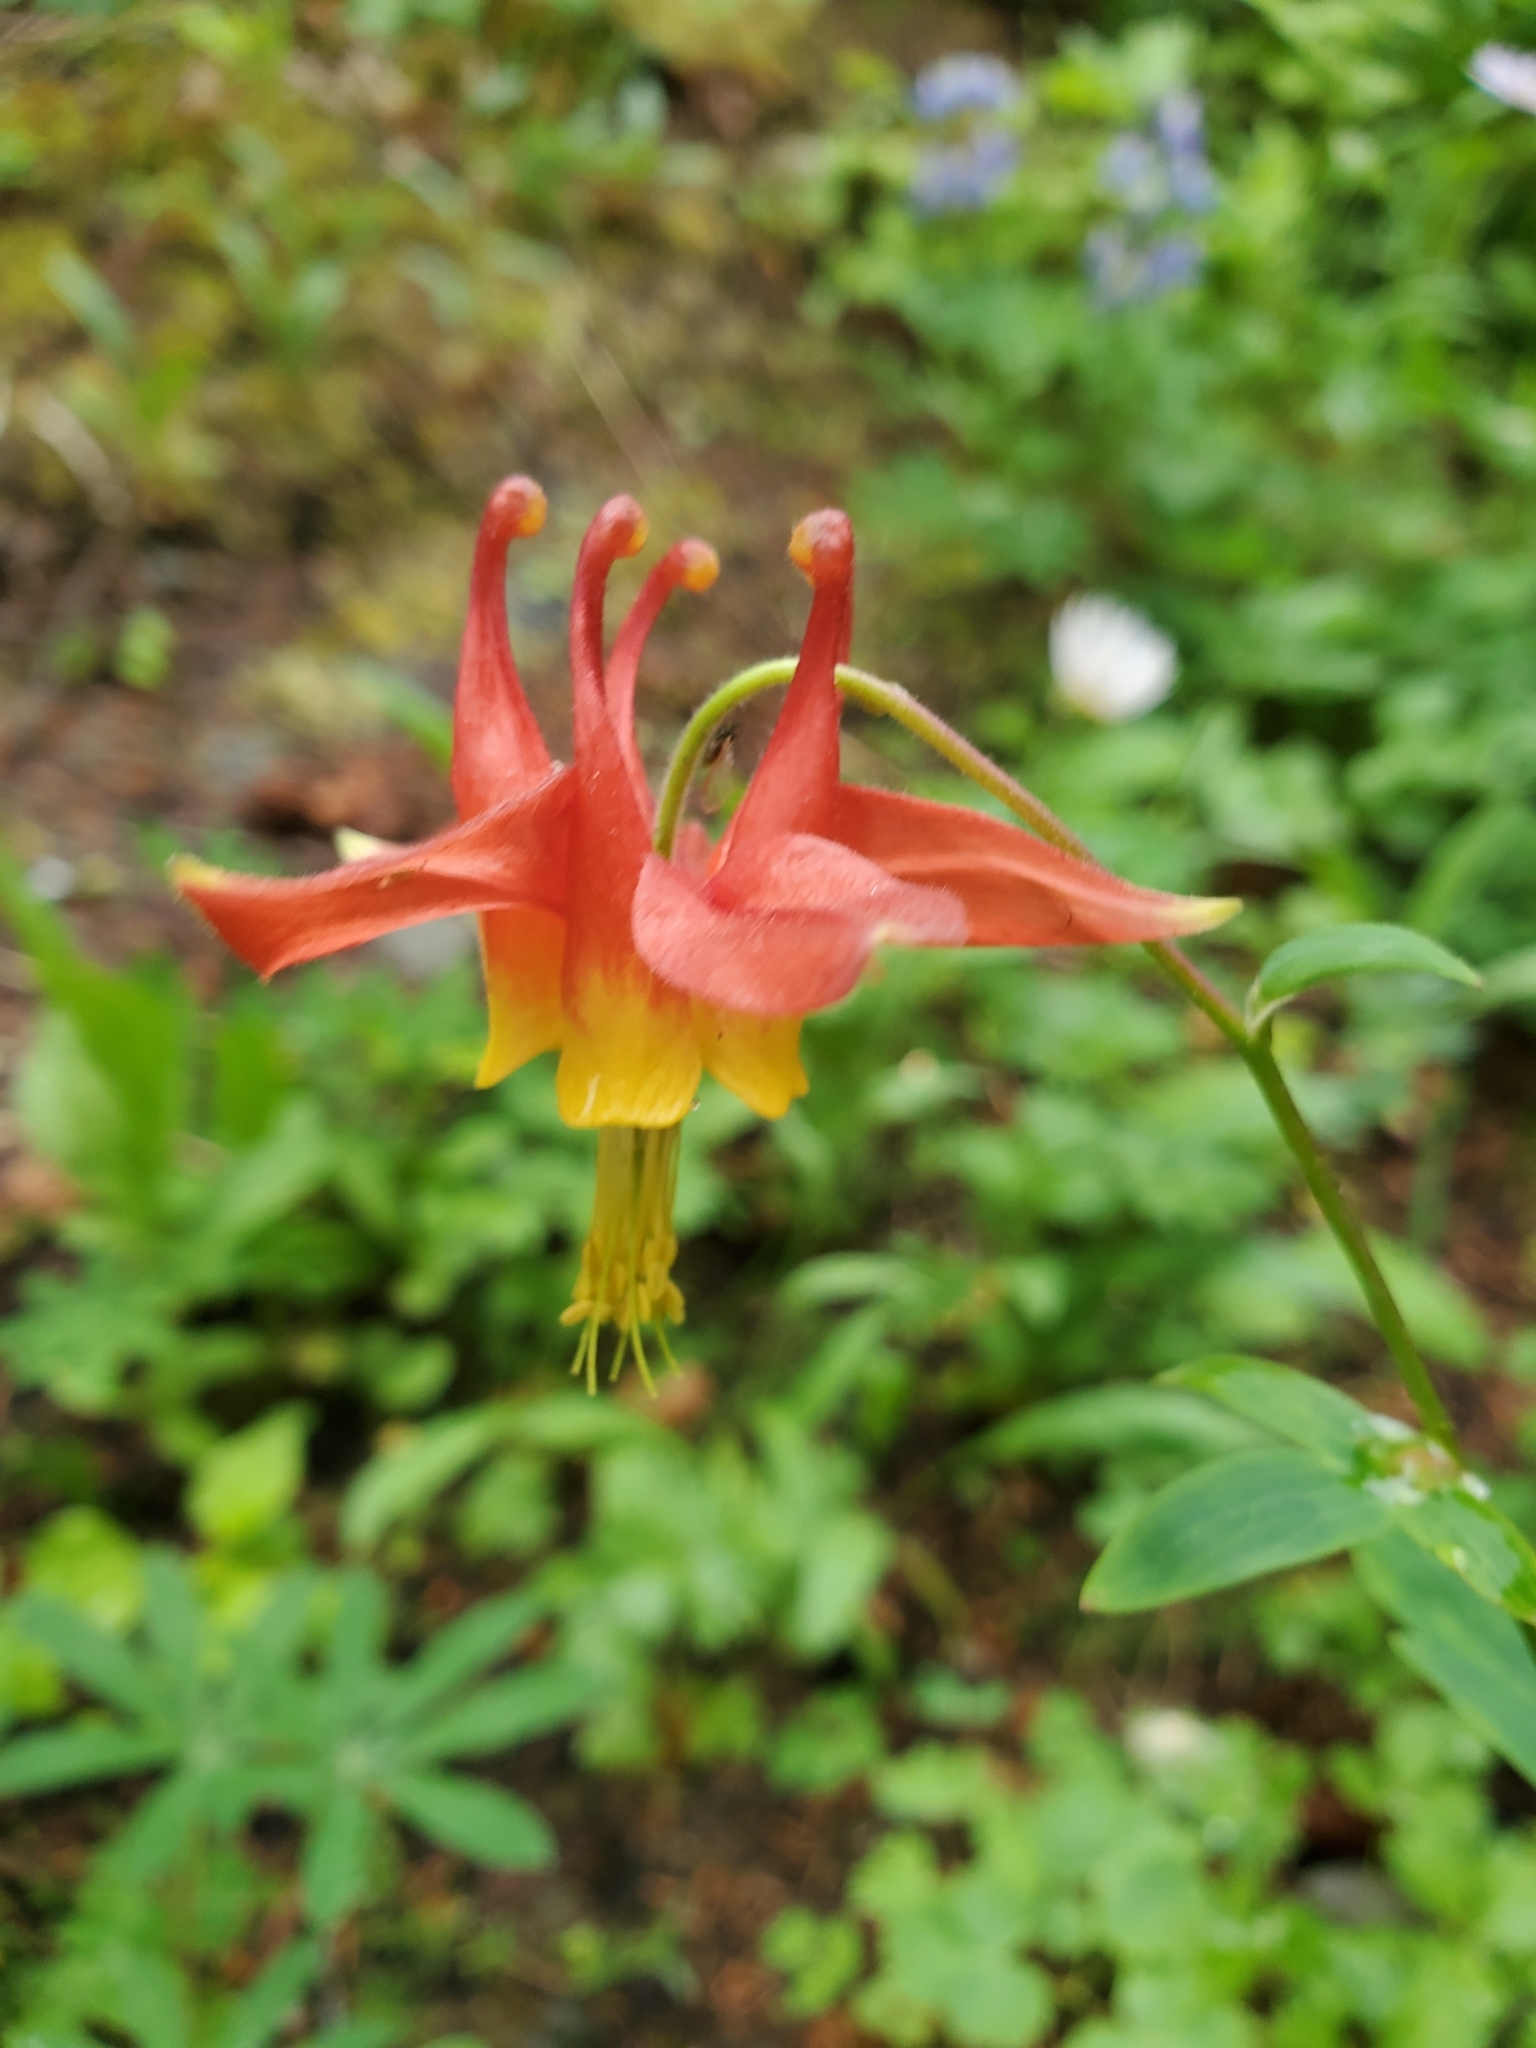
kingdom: Plantae
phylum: Tracheophyta
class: Magnoliopsida
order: Ranunculales
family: Ranunculaceae
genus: Aquilegia
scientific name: Aquilegia formosa
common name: Sitka columbine
